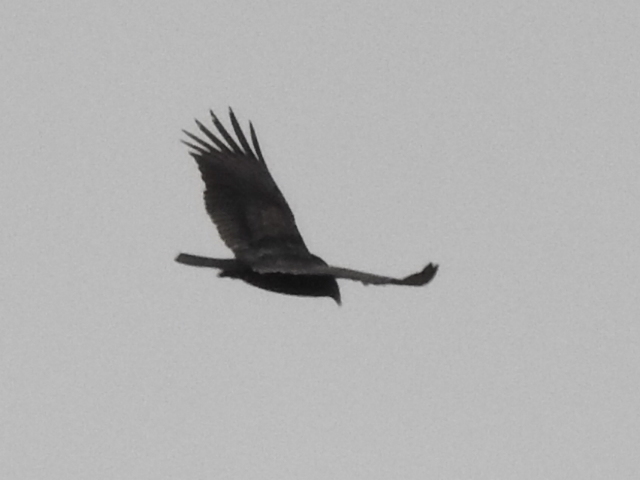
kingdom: Animalia
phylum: Chordata
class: Aves
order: Accipitriformes
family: Cathartidae
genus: Cathartes
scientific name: Cathartes aura
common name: Turkey vulture
